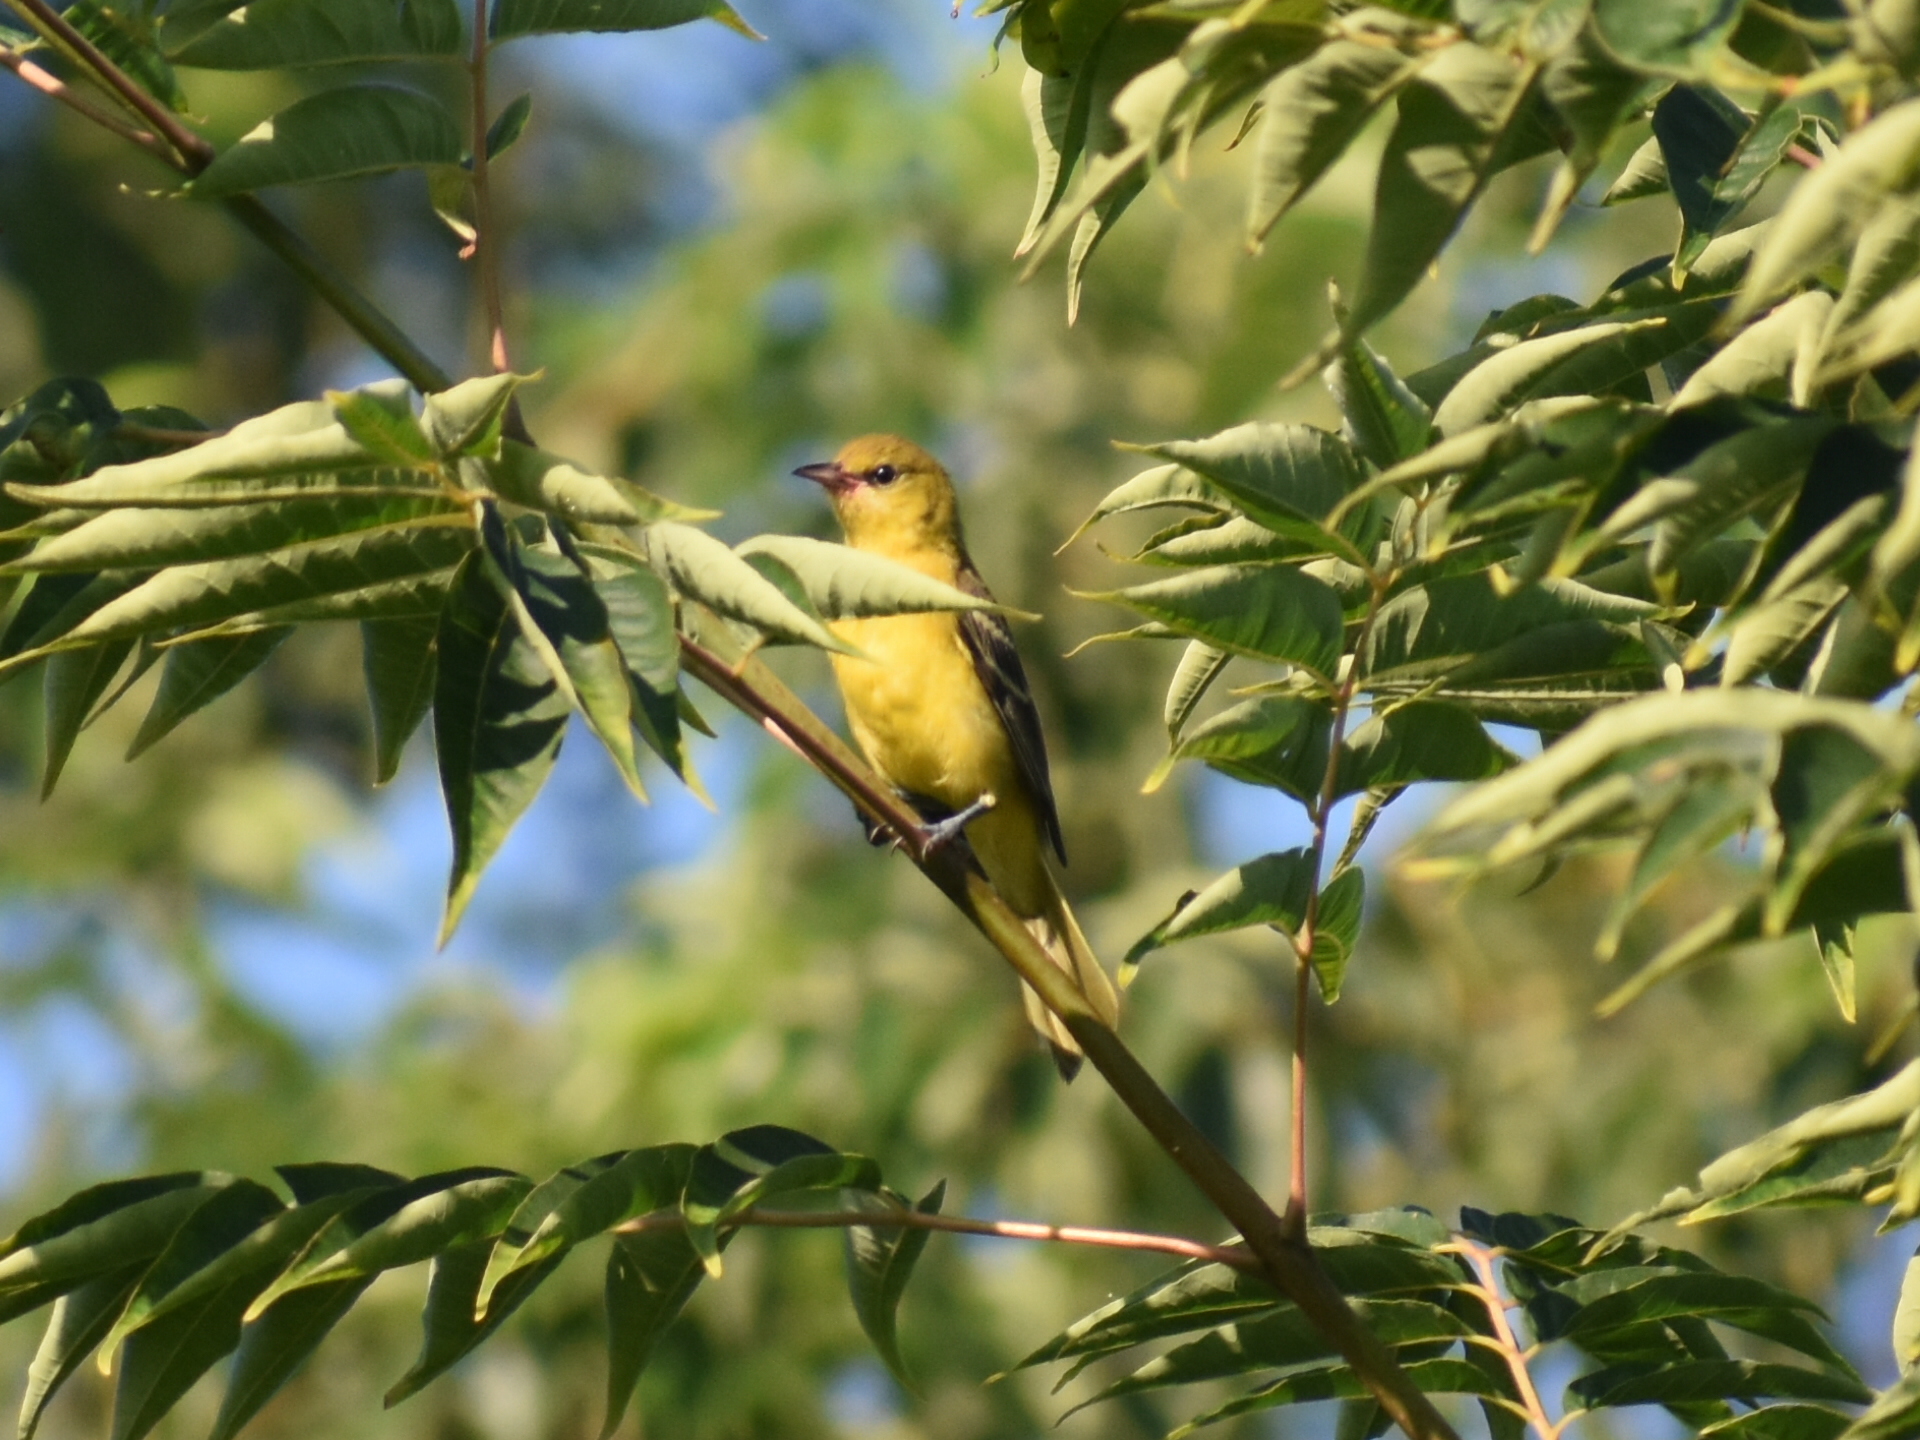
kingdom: Animalia
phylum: Chordata
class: Aves
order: Passeriformes
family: Icteridae
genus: Icterus
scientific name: Icterus spurius
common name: Orchard oriole
